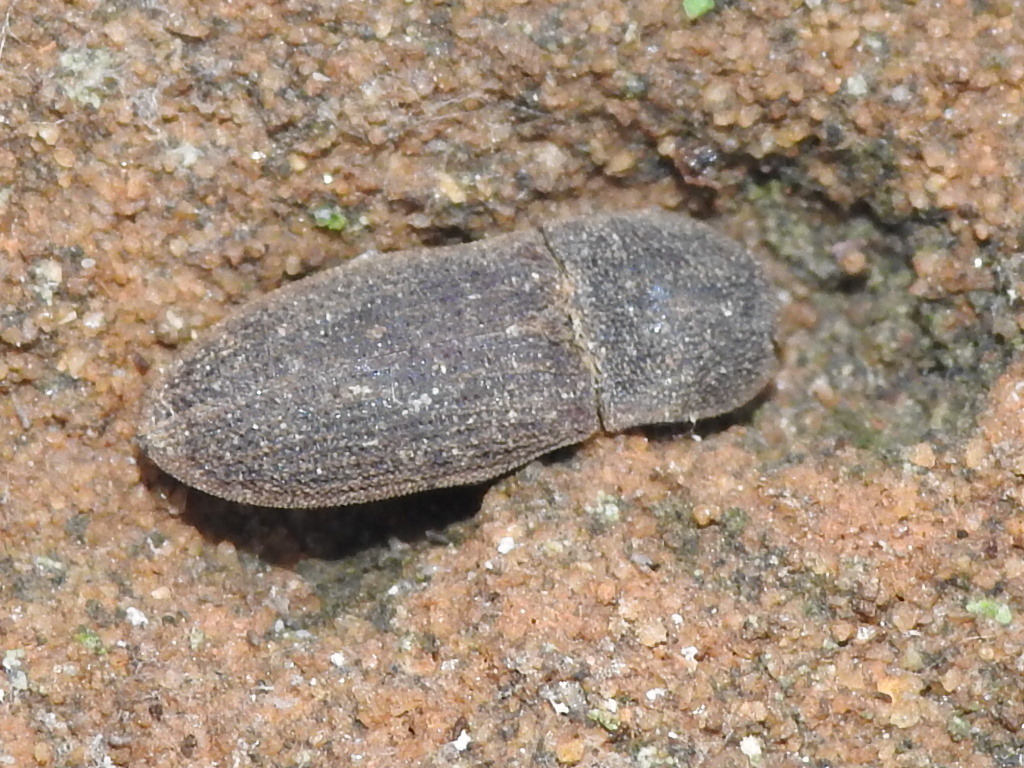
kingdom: Animalia
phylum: Arthropoda
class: Insecta
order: Coleoptera
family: Elateridae
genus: Agrypnus
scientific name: Agrypnus rectangularis
